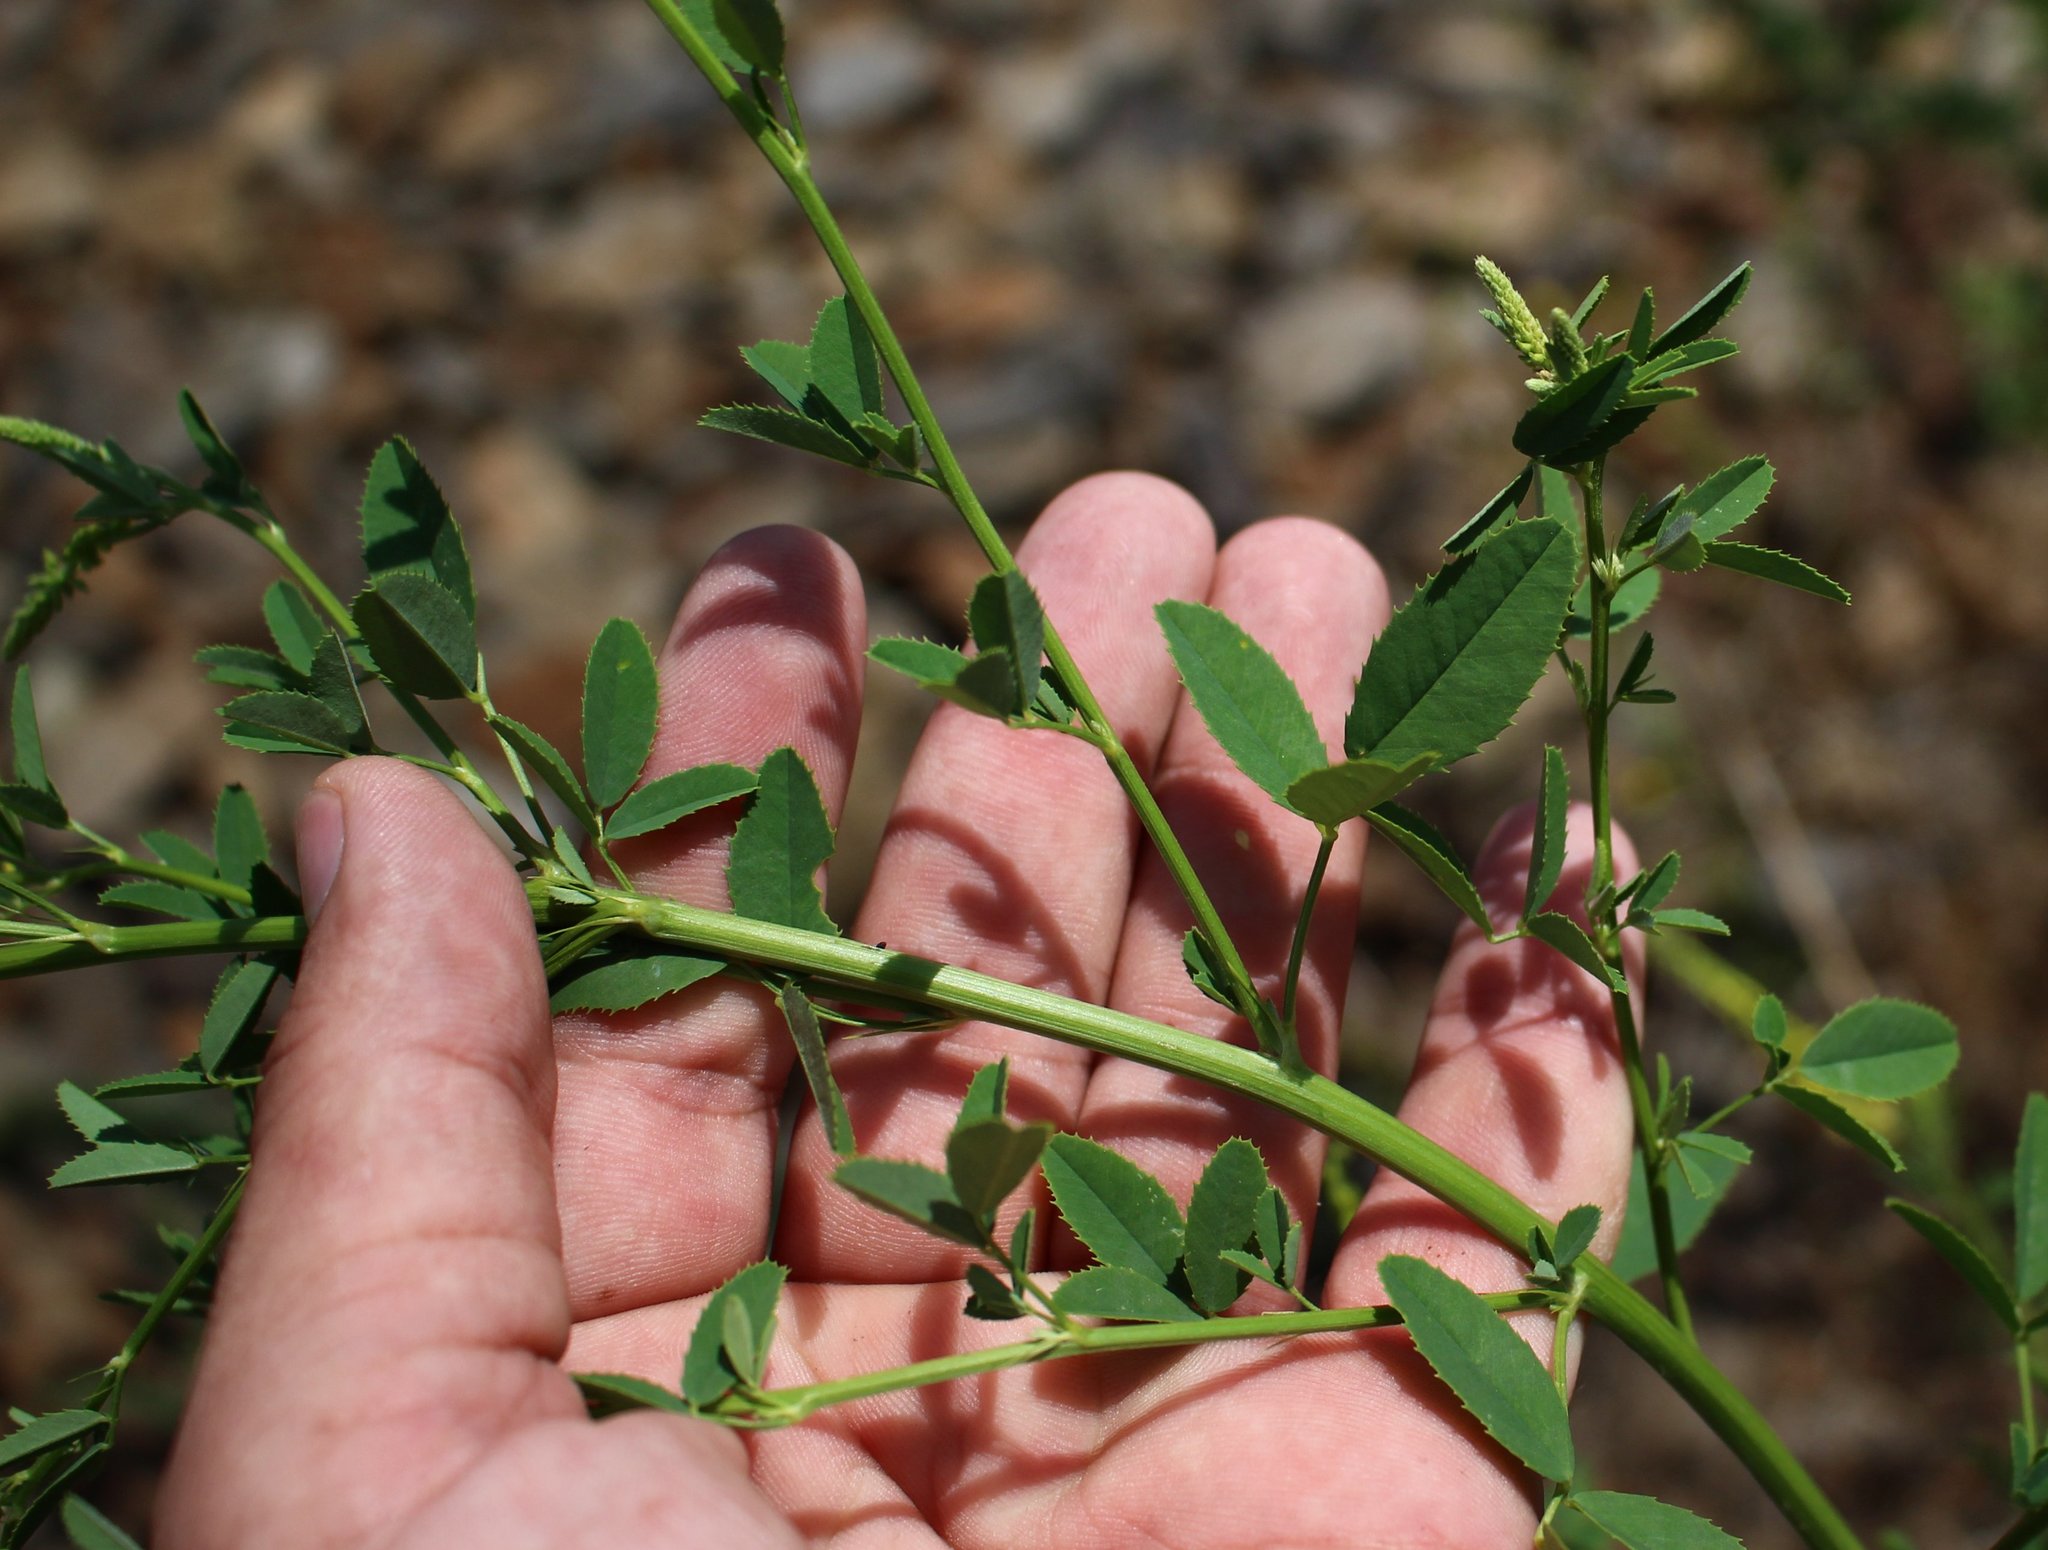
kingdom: Plantae
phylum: Tracheophyta
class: Magnoliopsida
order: Fabales
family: Fabaceae
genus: Melilotus
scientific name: Melilotus officinalis
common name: Sweetclover
